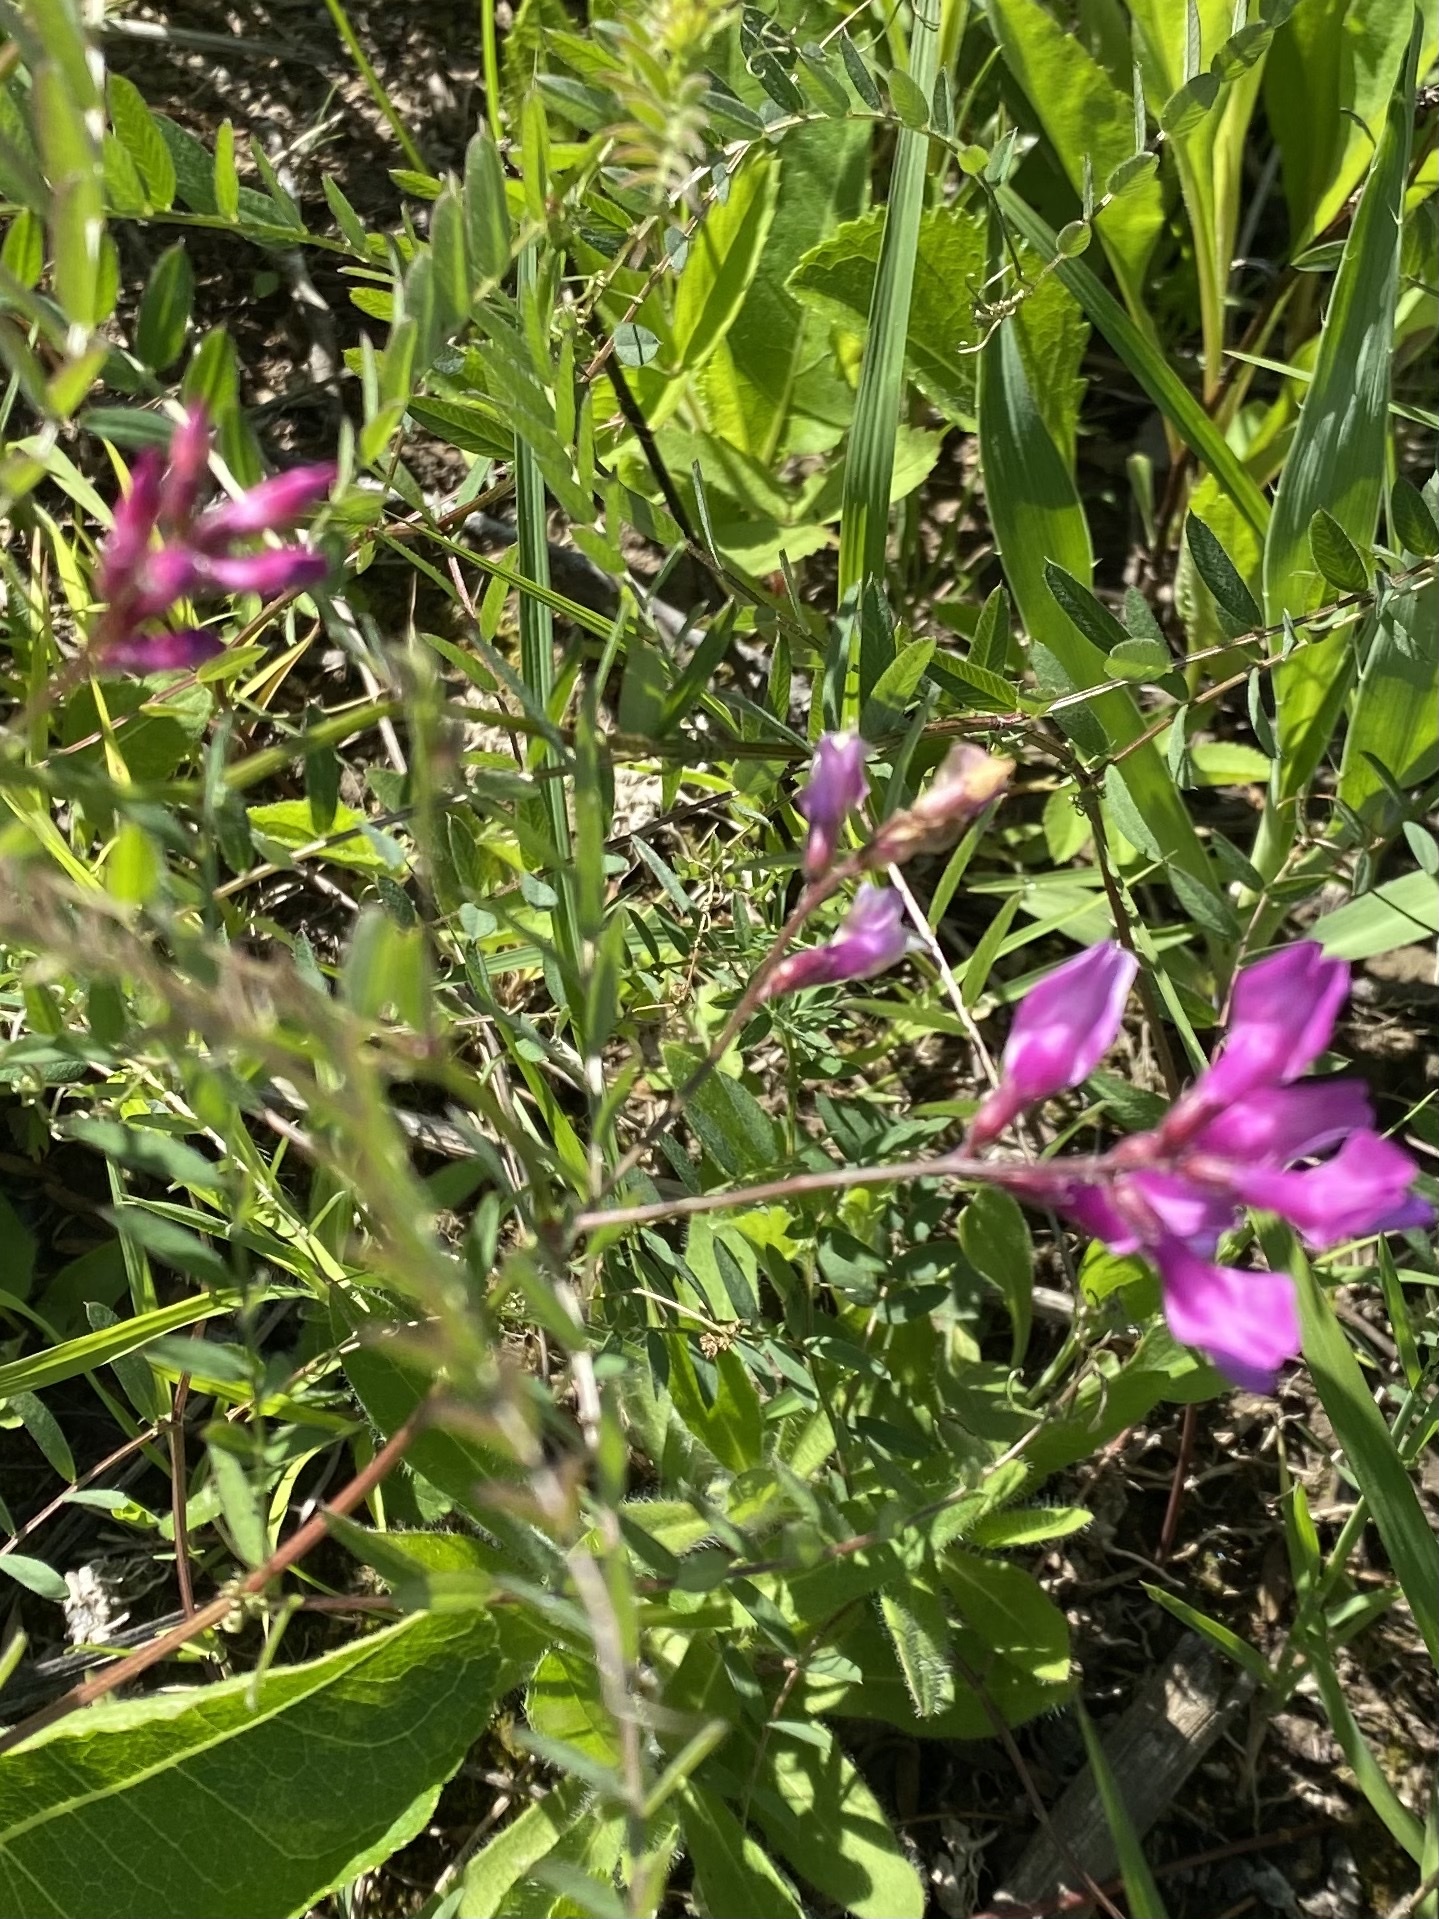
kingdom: Plantae
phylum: Tracheophyta
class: Magnoliopsida
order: Fabales
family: Fabaceae
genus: Vicia
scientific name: Vicia americana
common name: American vetch
